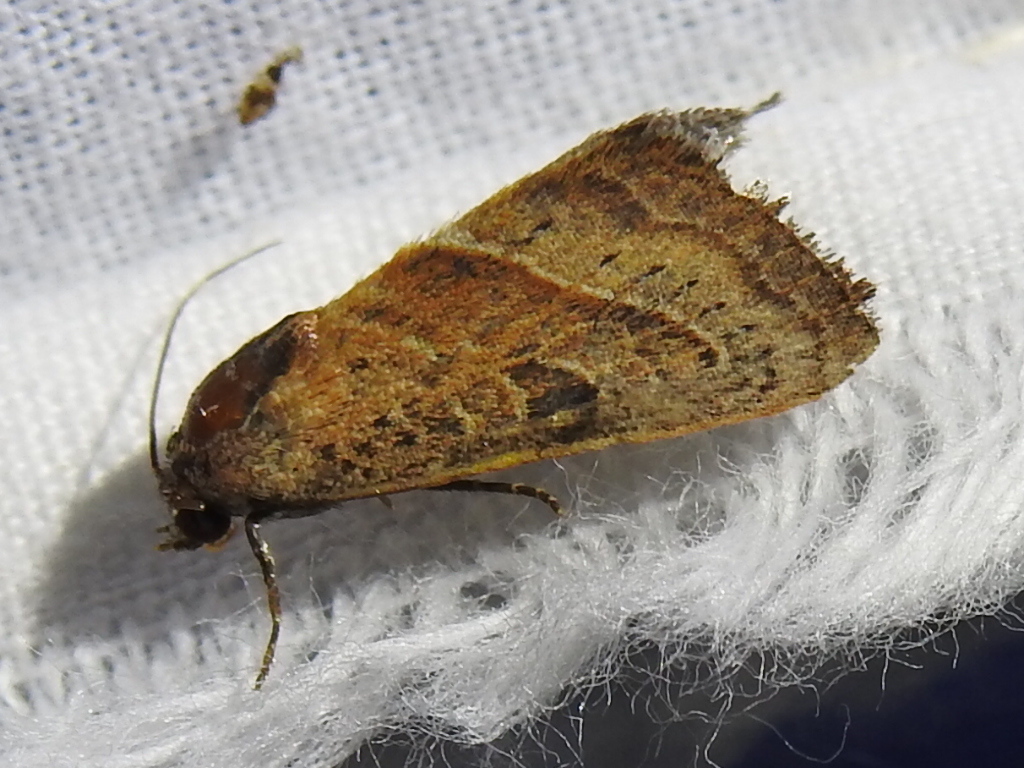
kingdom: Animalia
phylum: Arthropoda
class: Insecta
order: Lepidoptera
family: Noctuidae
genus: Galgula
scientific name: Galgula partita
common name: Wedgeling
